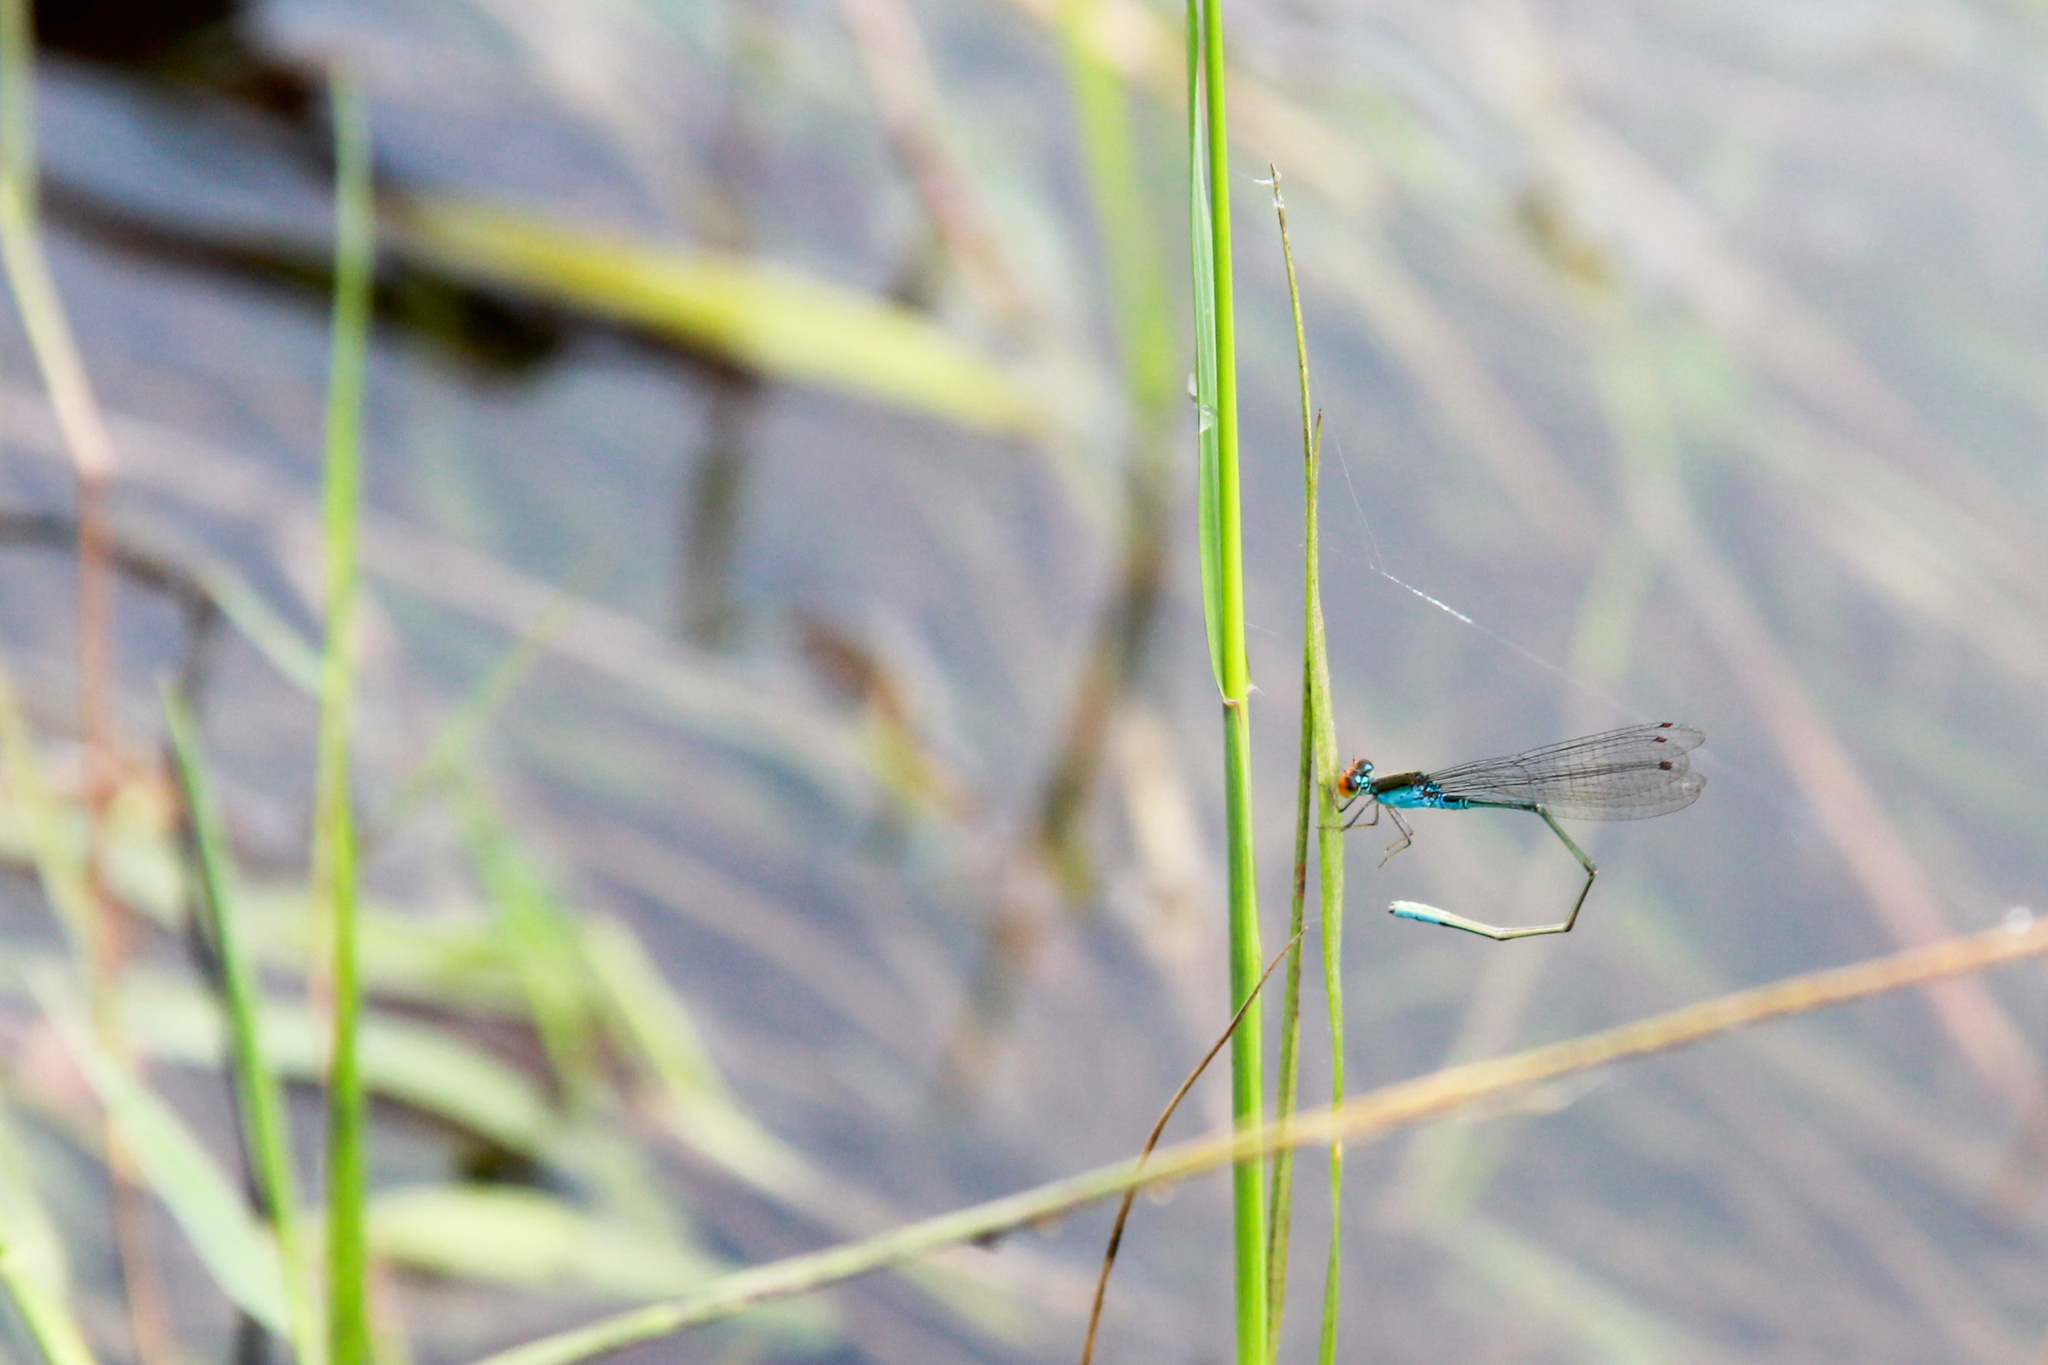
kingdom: Animalia
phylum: Arthropoda
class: Insecta
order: Odonata
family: Coenagrionidae
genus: Pseudagrion
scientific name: Pseudagrion rubriceps
